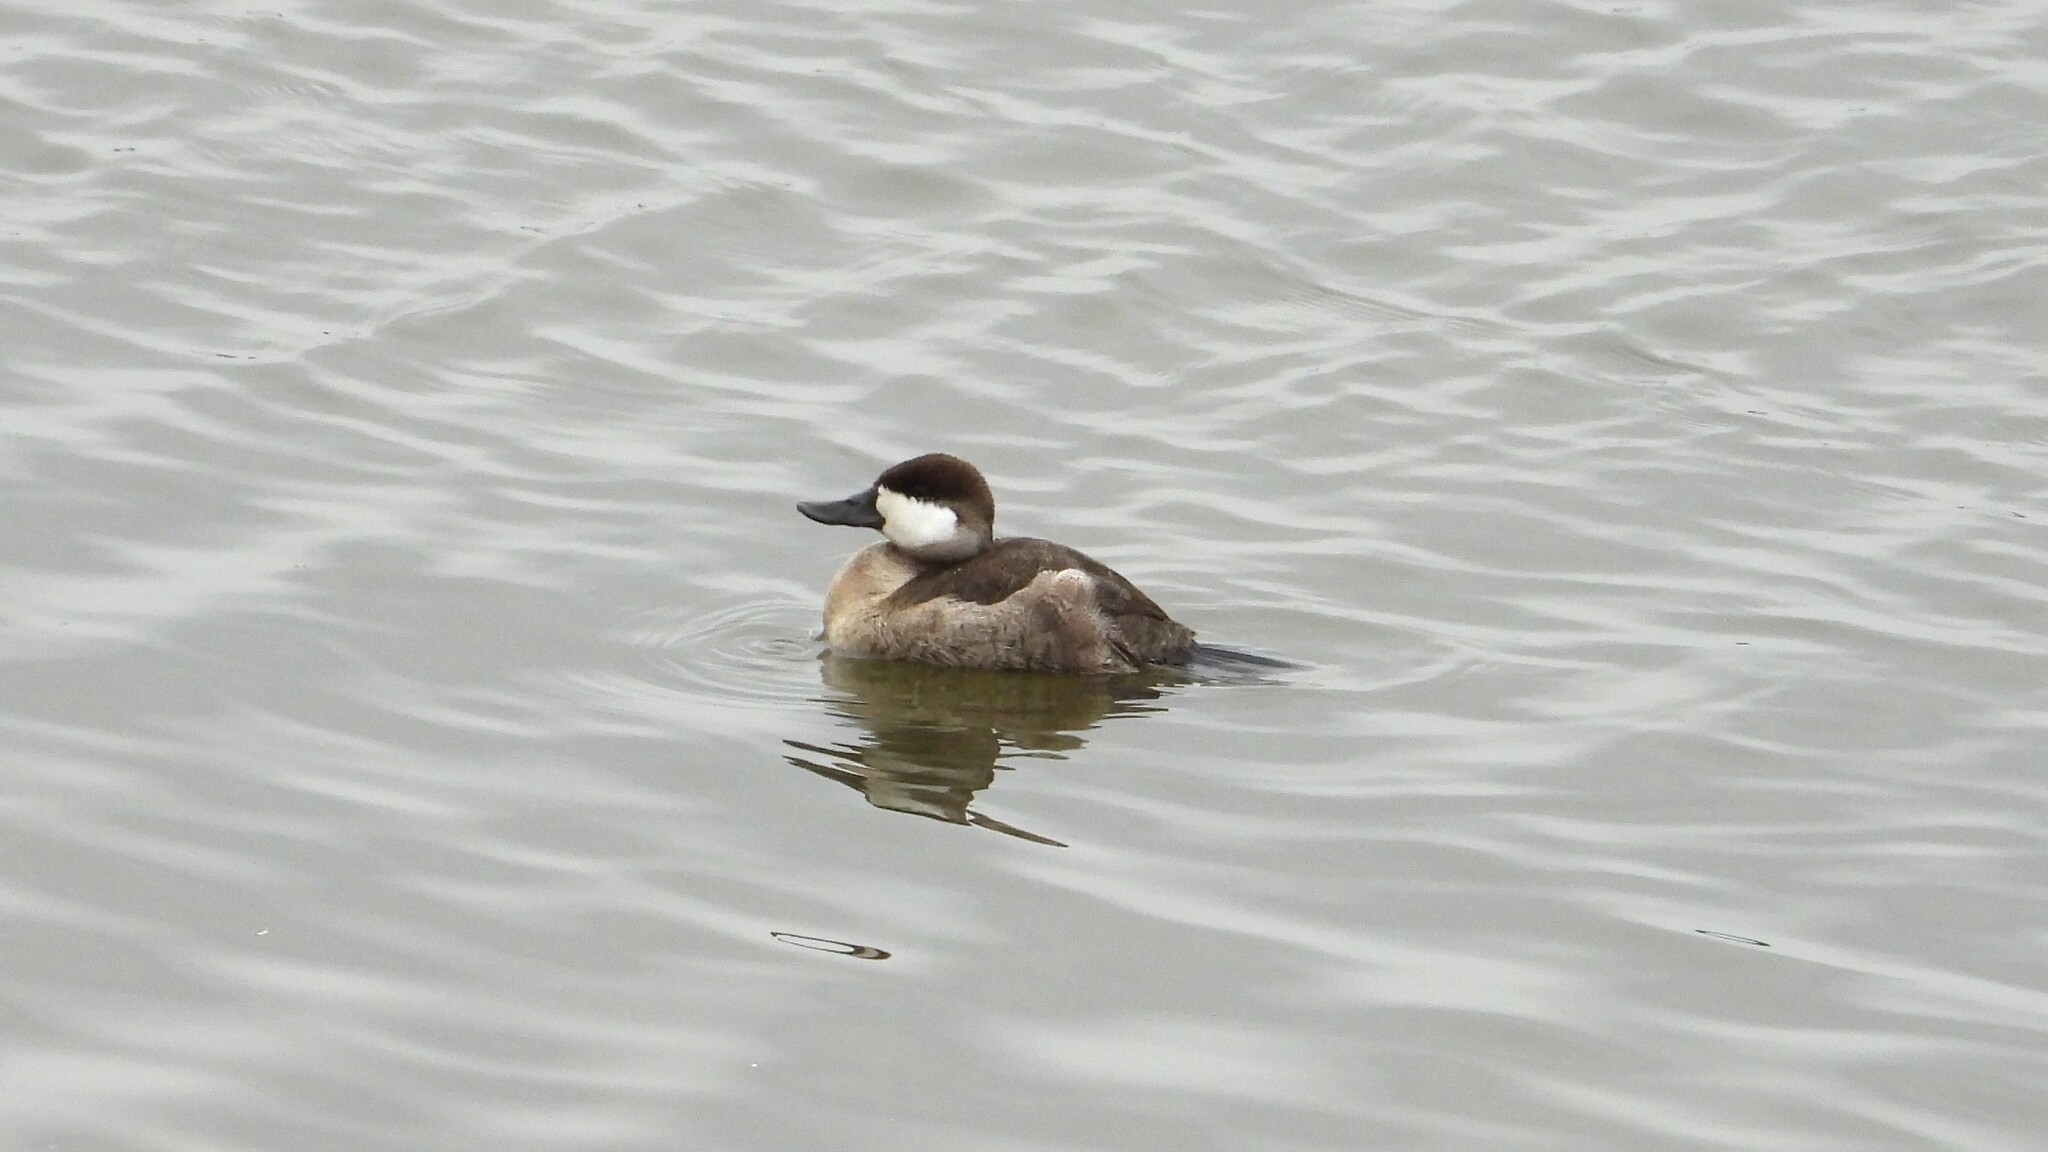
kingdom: Animalia
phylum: Chordata
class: Aves
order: Anseriformes
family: Anatidae
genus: Oxyura
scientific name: Oxyura jamaicensis
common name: Ruddy duck
